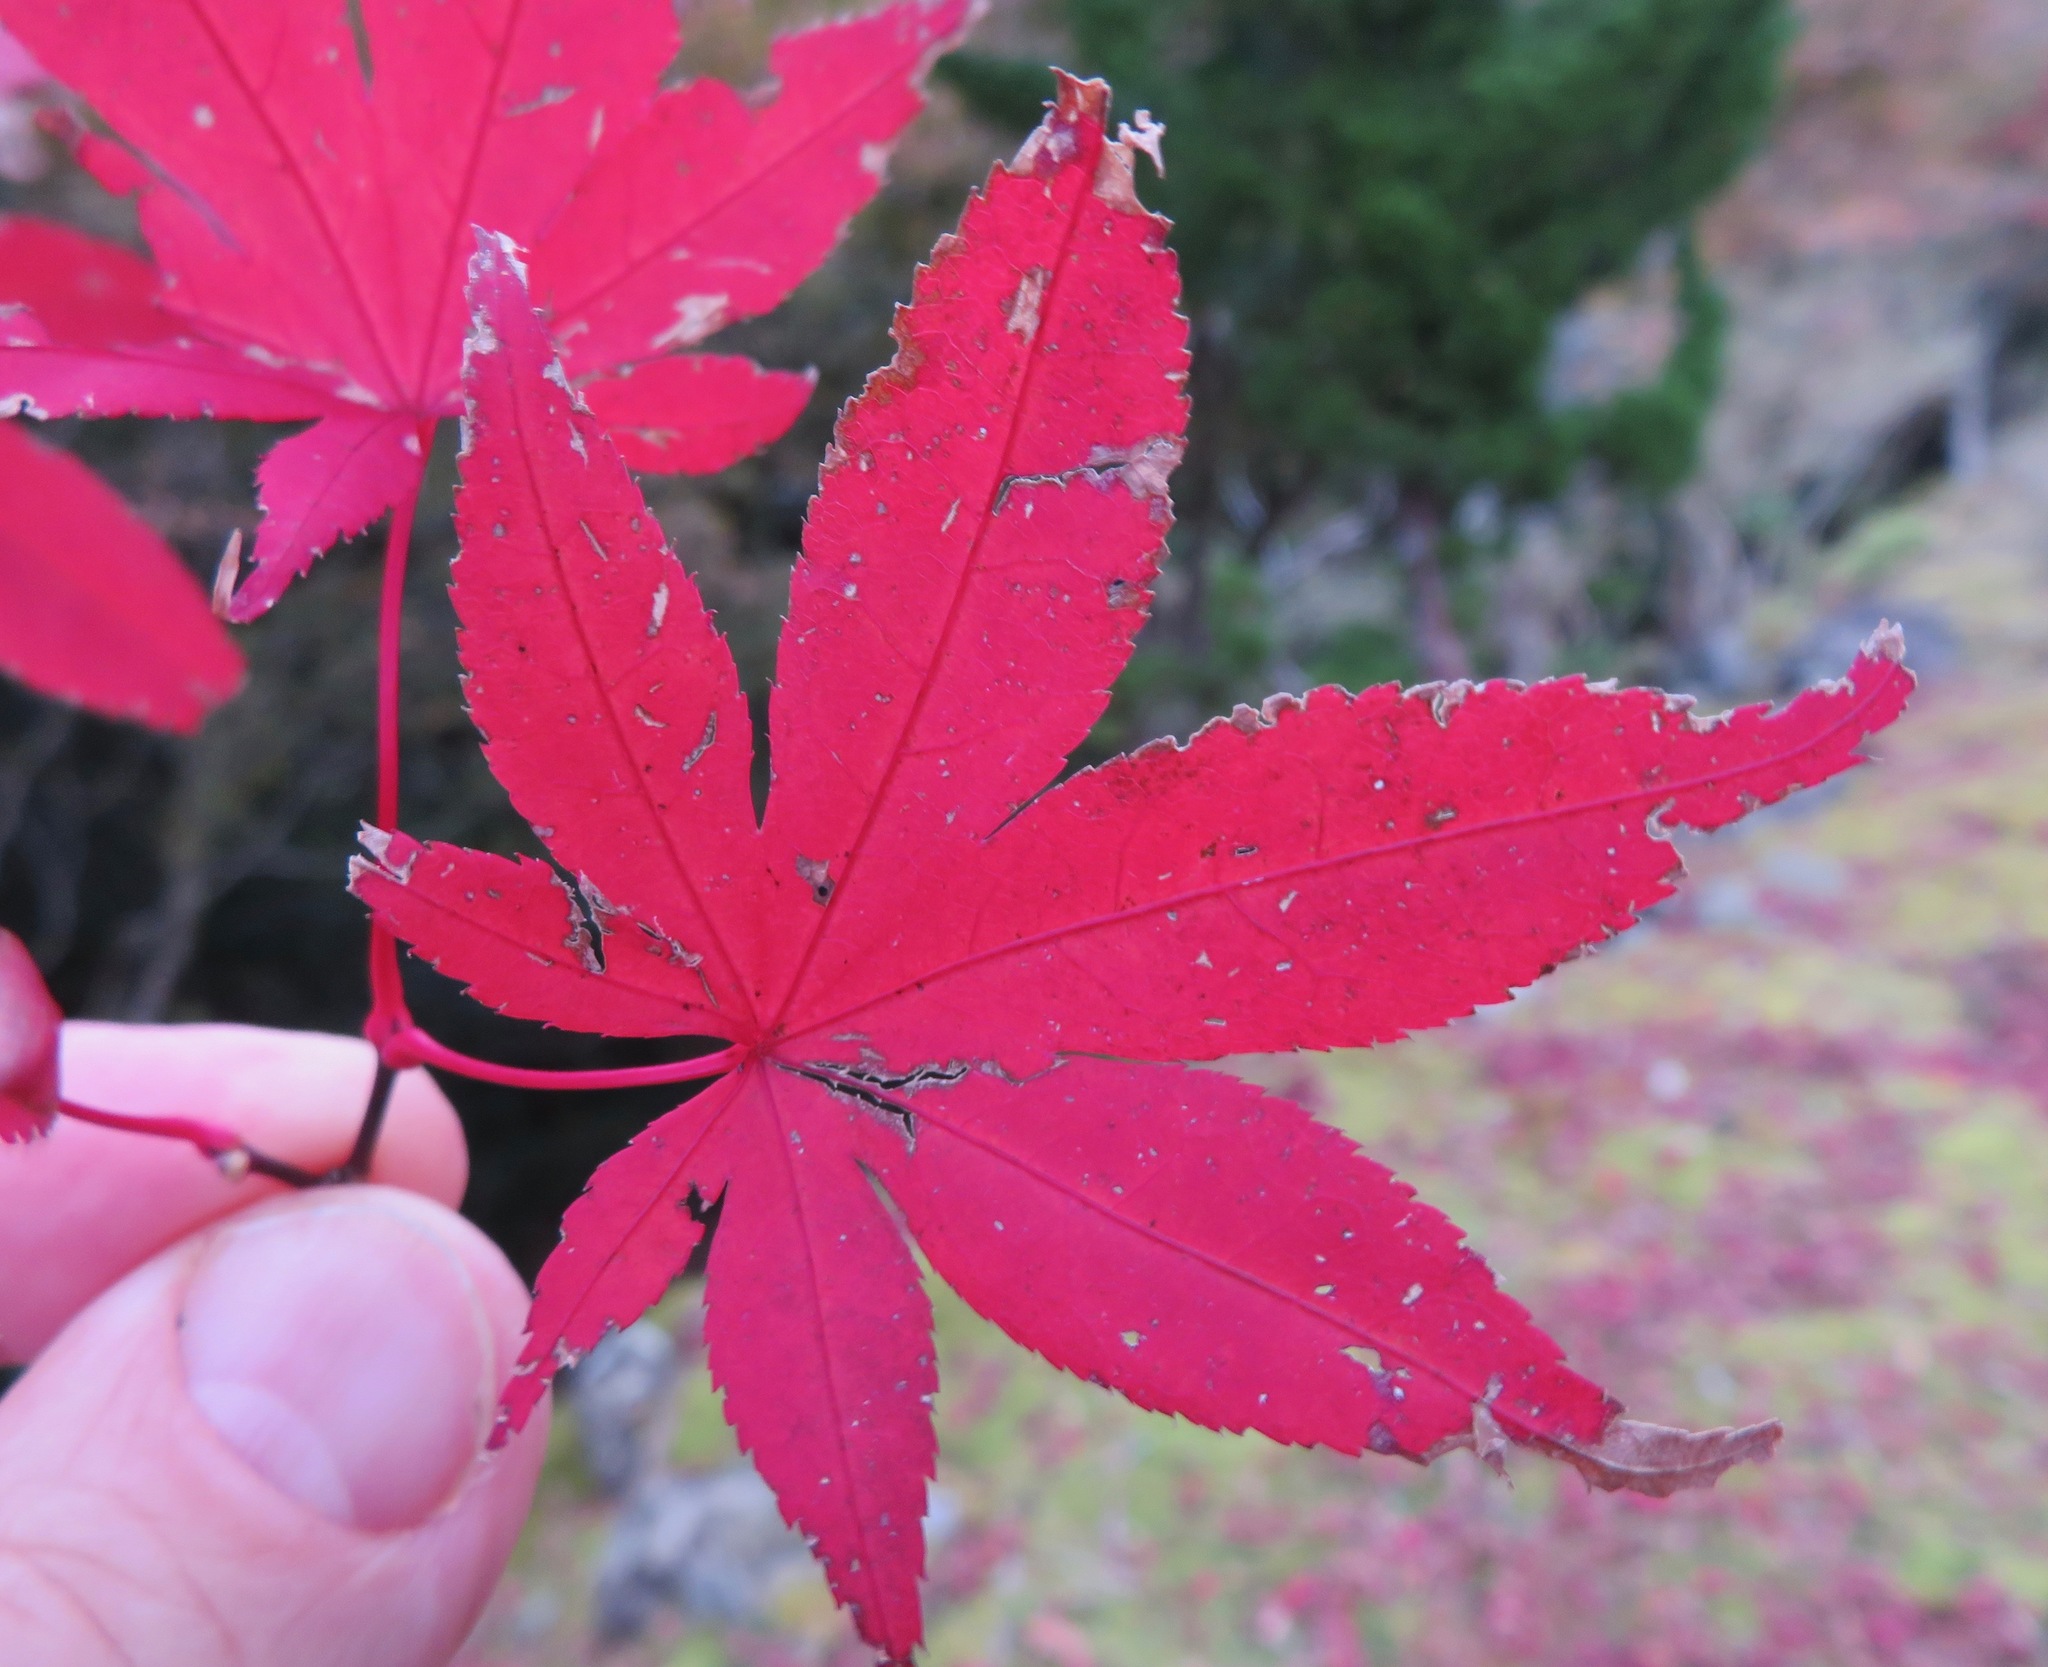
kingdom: Plantae
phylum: Tracheophyta
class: Magnoliopsida
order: Sapindales
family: Sapindaceae
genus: Acer
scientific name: Acer palmatum
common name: Japanese maple
